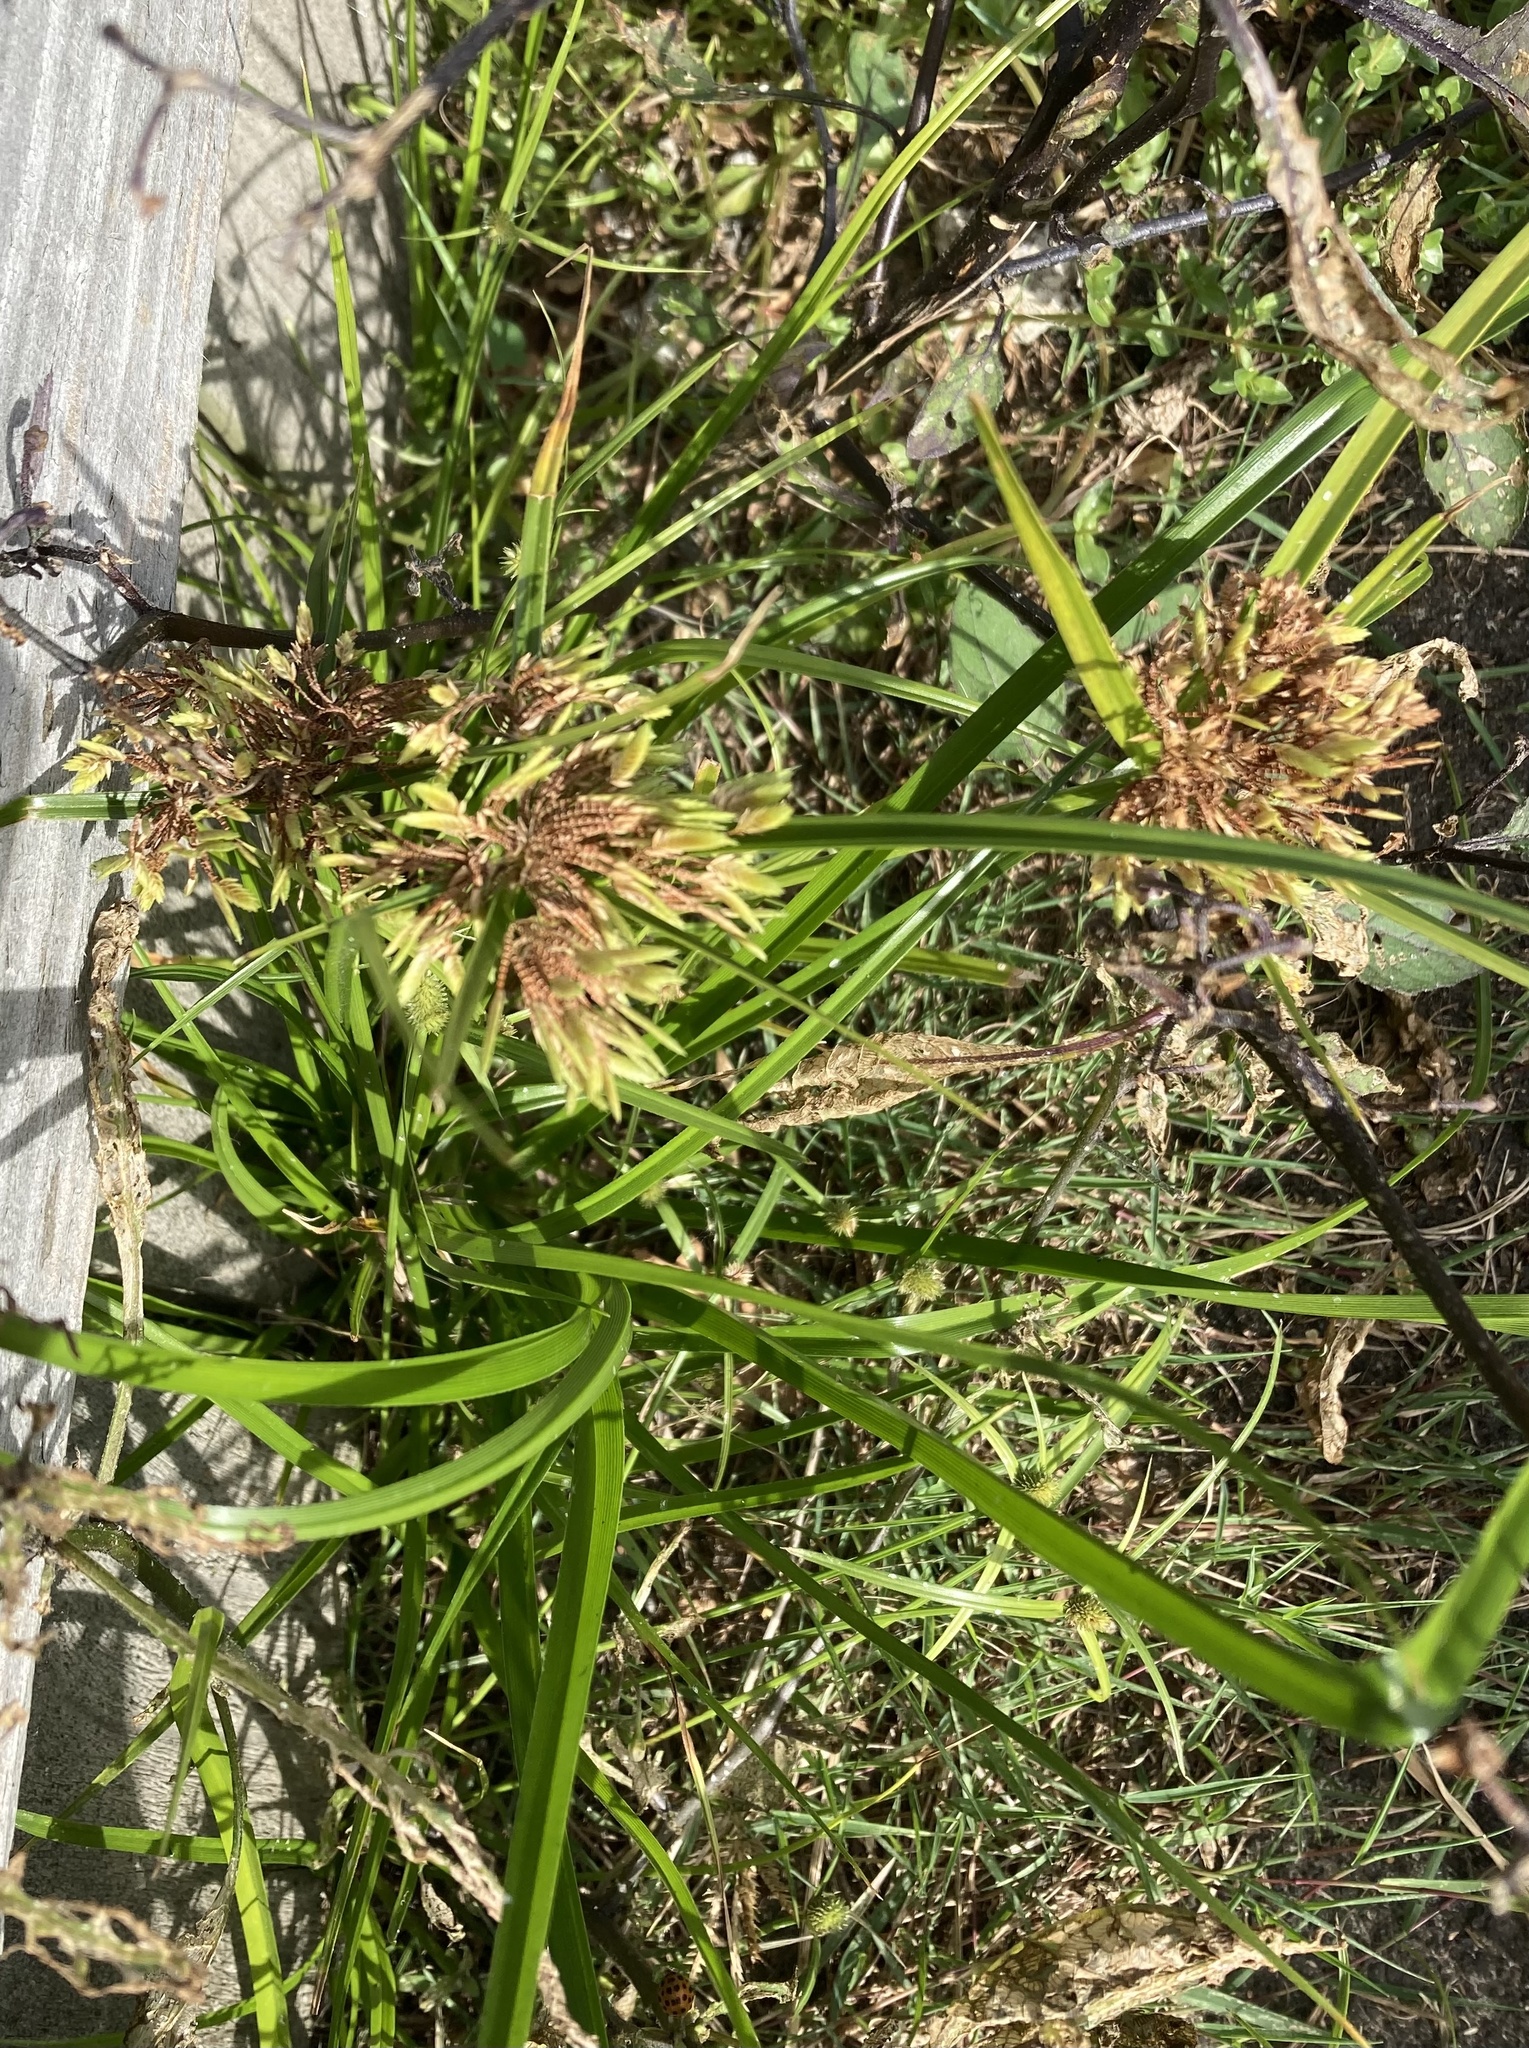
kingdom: Plantae
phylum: Tracheophyta
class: Liliopsida
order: Poales
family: Cyperaceae
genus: Cyperus
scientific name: Cyperus eragrostis
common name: Tall flatsedge
